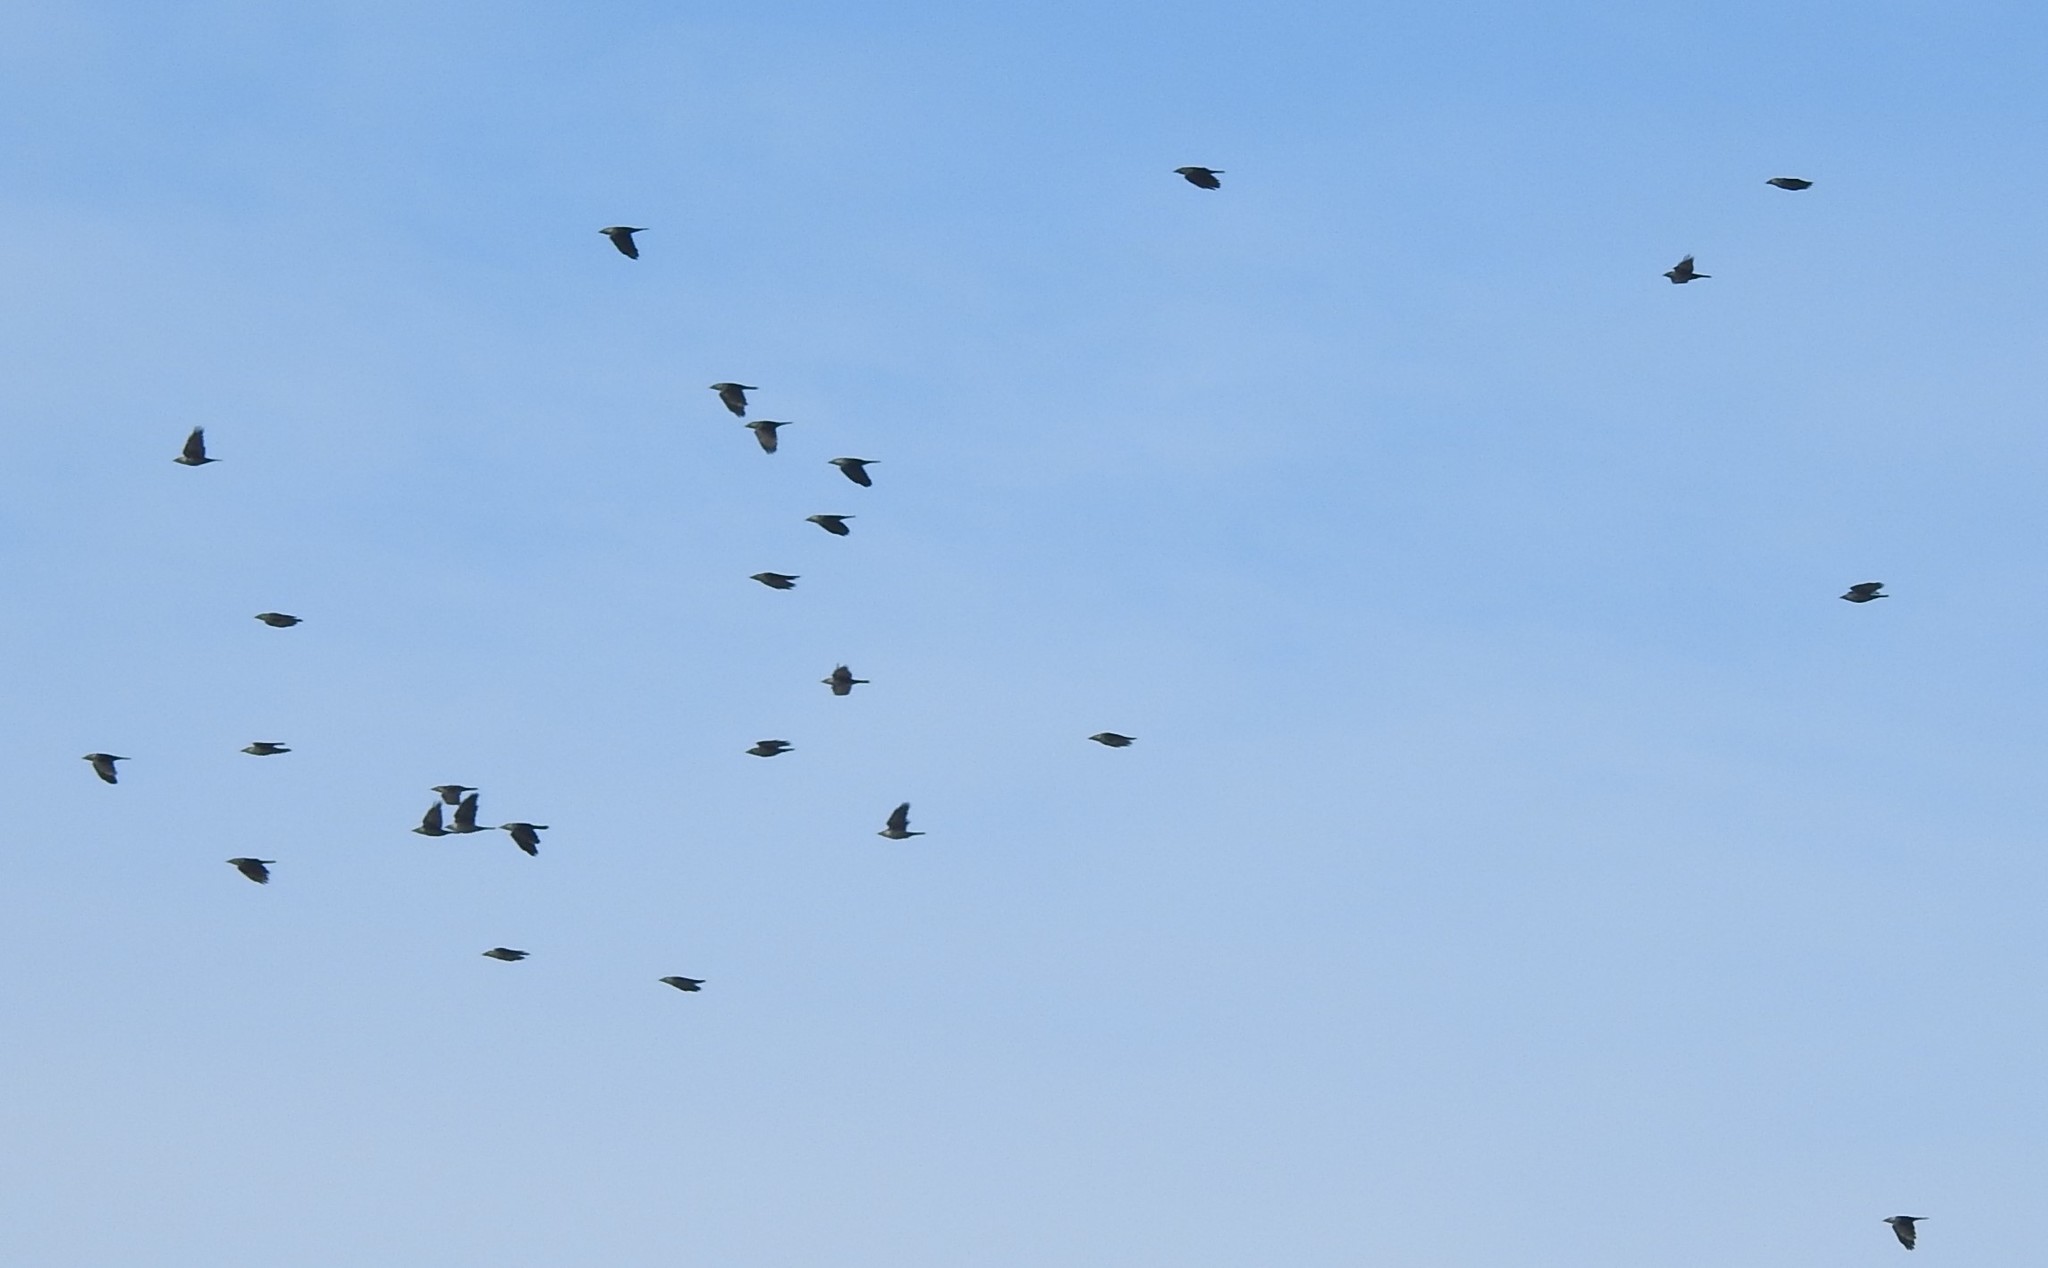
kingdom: Animalia
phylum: Chordata
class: Aves
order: Passeriformes
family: Corvidae
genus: Coloeus
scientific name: Coloeus monedula
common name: Western jackdaw
